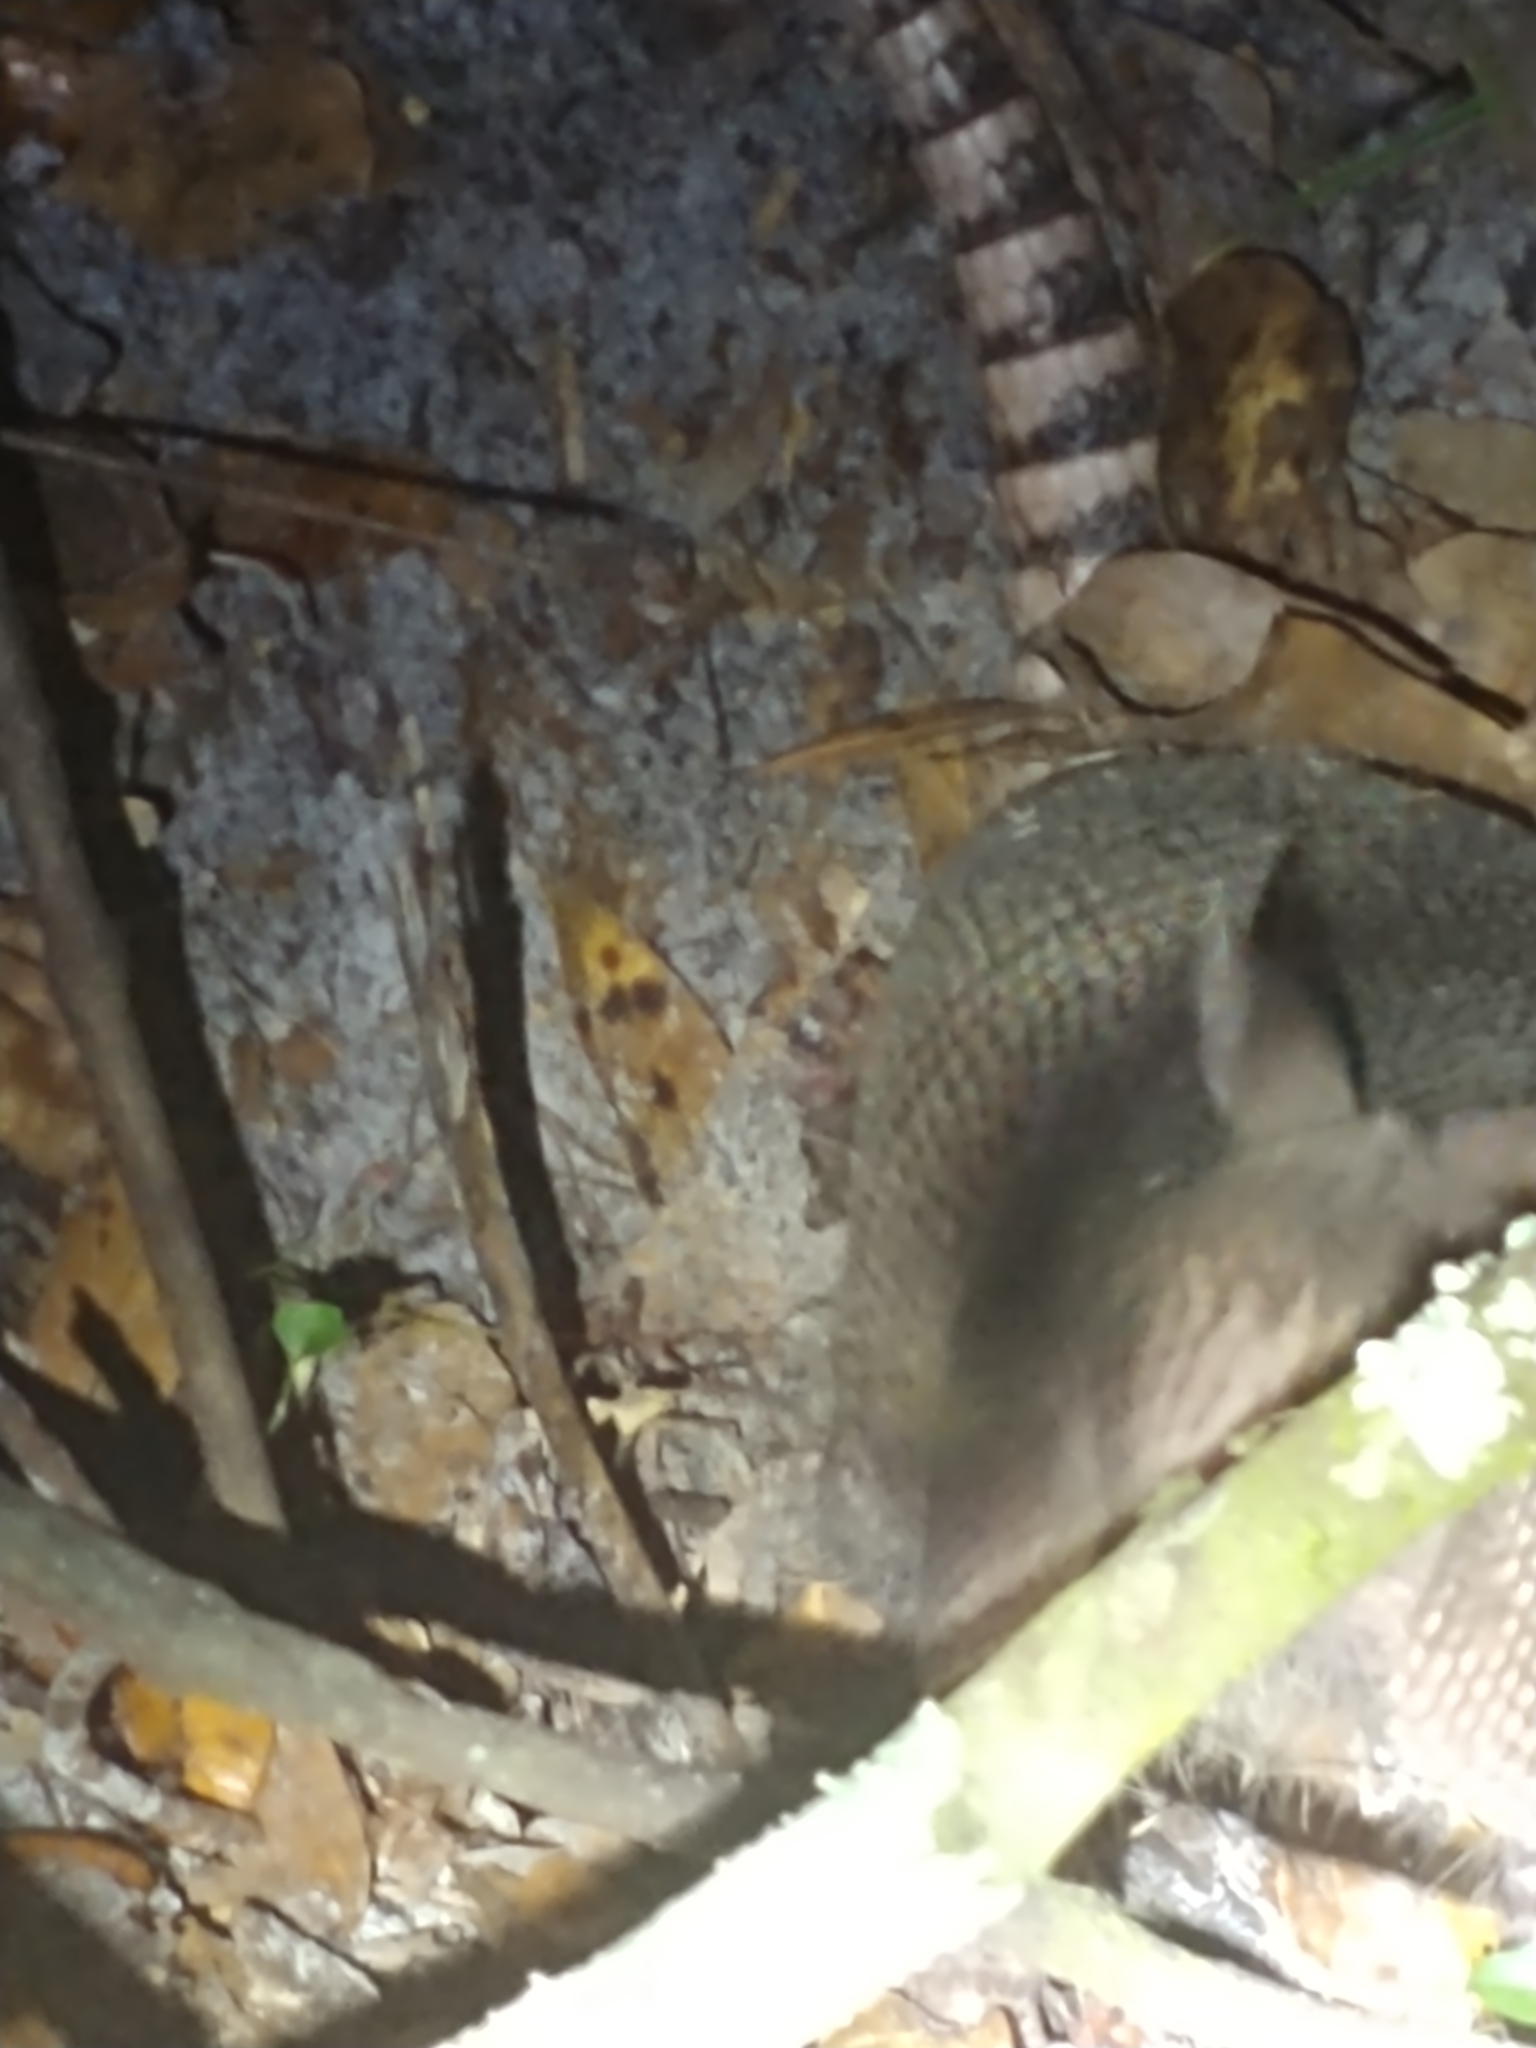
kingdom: Animalia
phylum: Chordata
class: Mammalia
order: Cingulata
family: Dasypodidae
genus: Dasypus
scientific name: Dasypus novemcinctus
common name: Nine-banded armadillo
